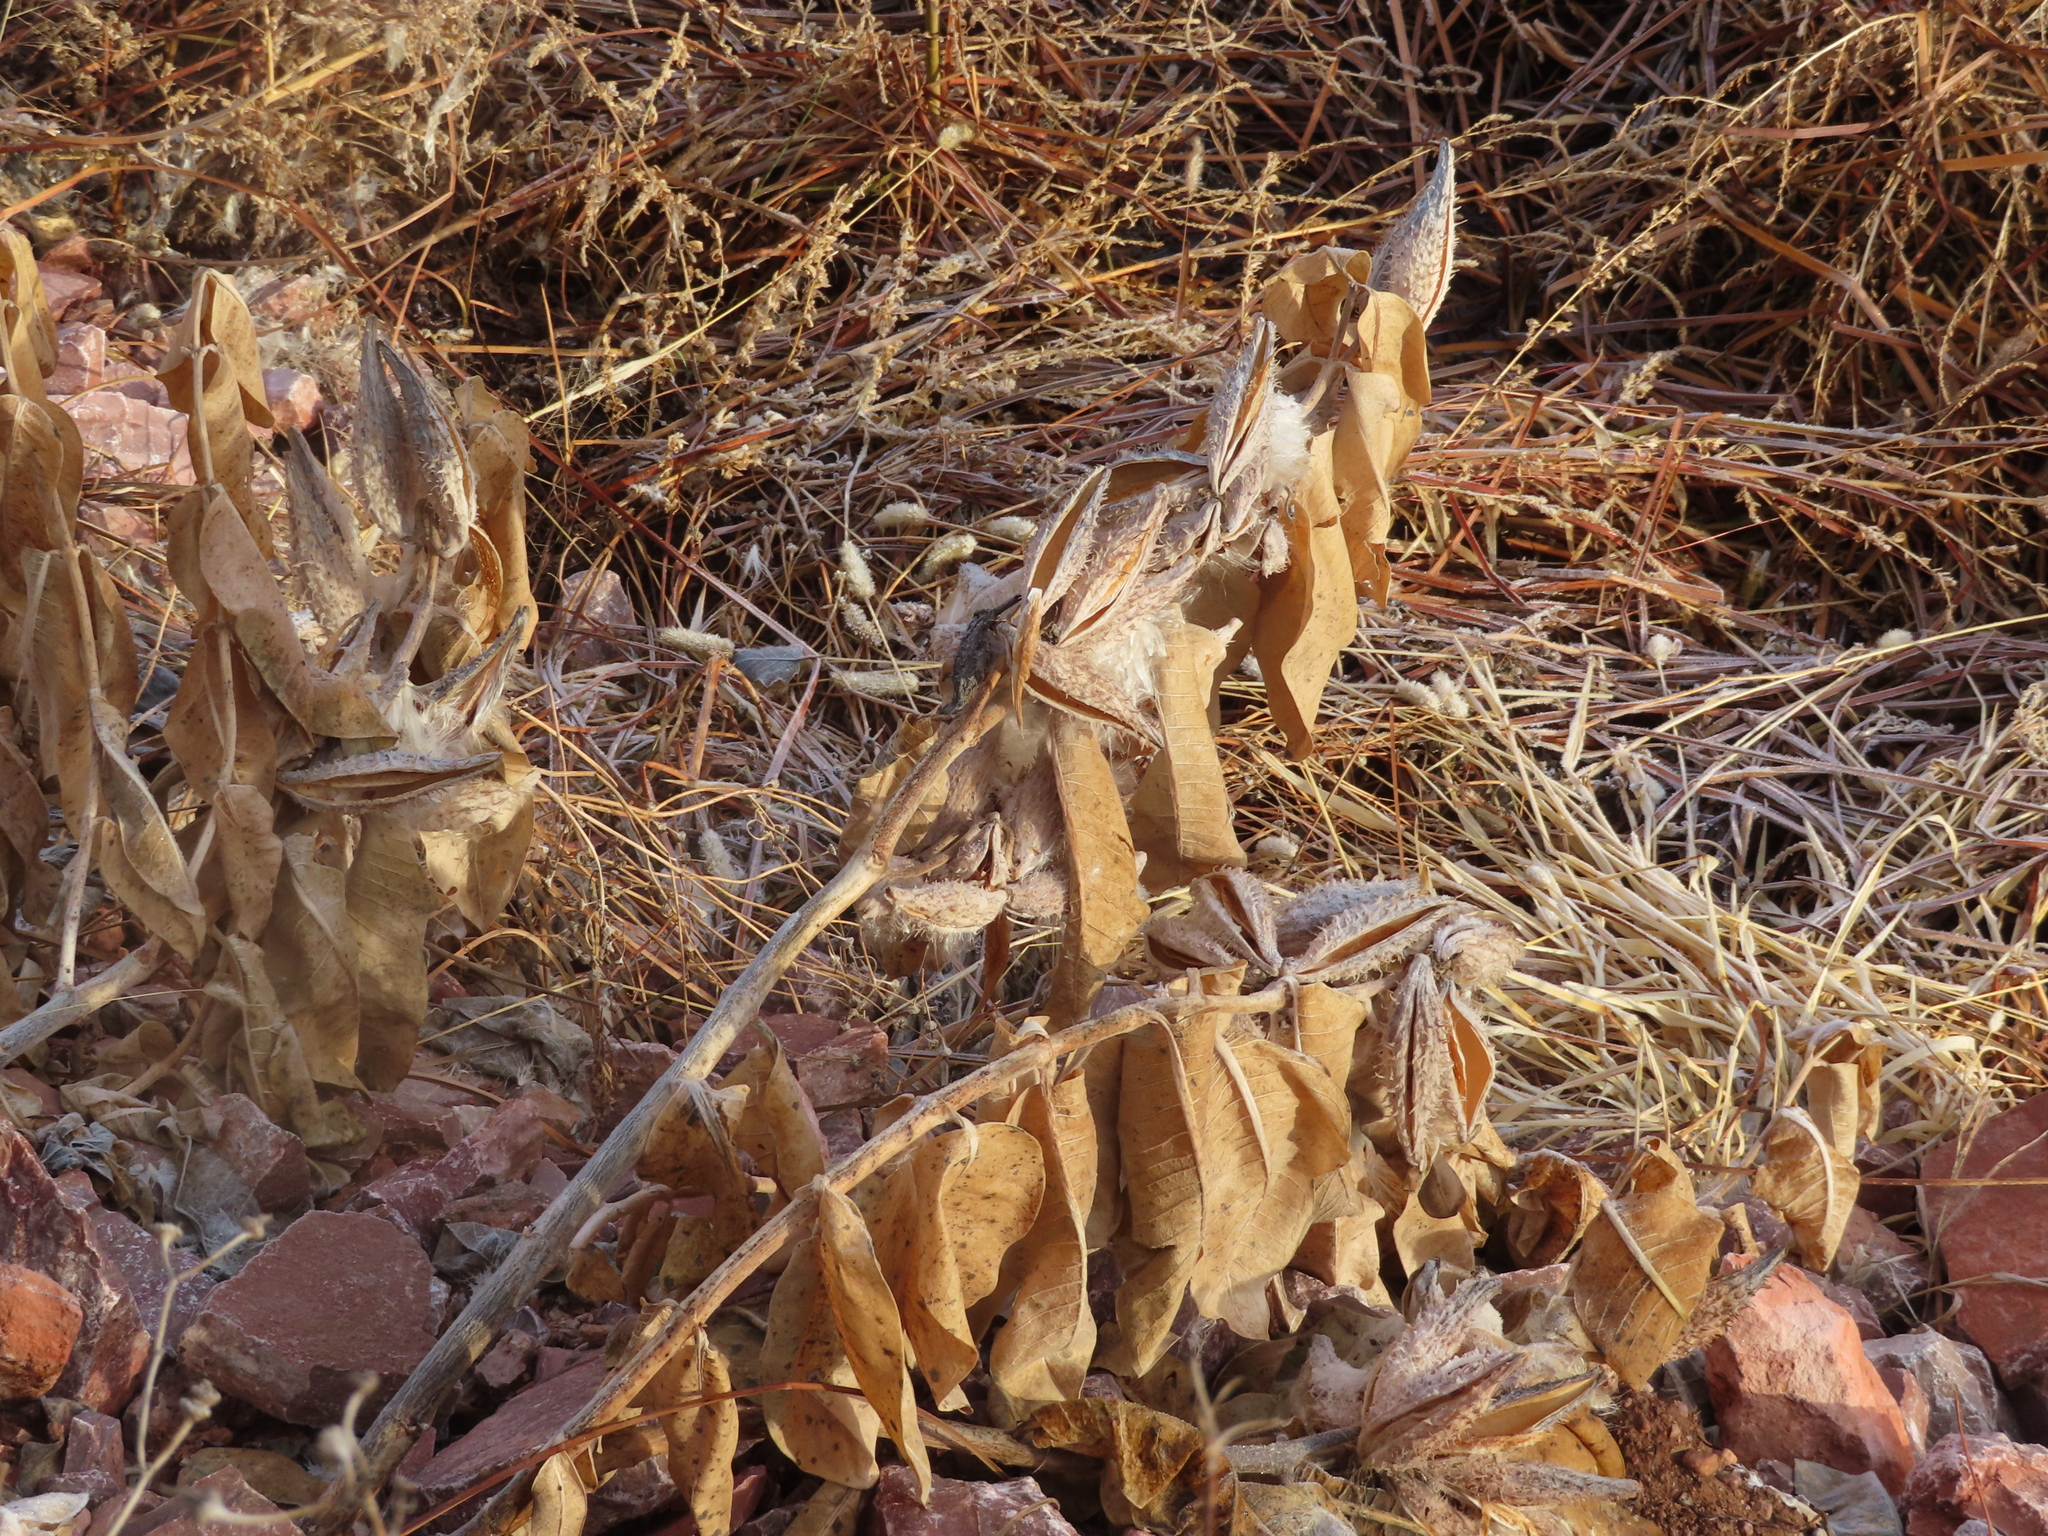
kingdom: Plantae
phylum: Tracheophyta
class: Magnoliopsida
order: Gentianales
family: Apocynaceae
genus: Asclepias
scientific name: Asclepias speciosa
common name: Showy milkweed
